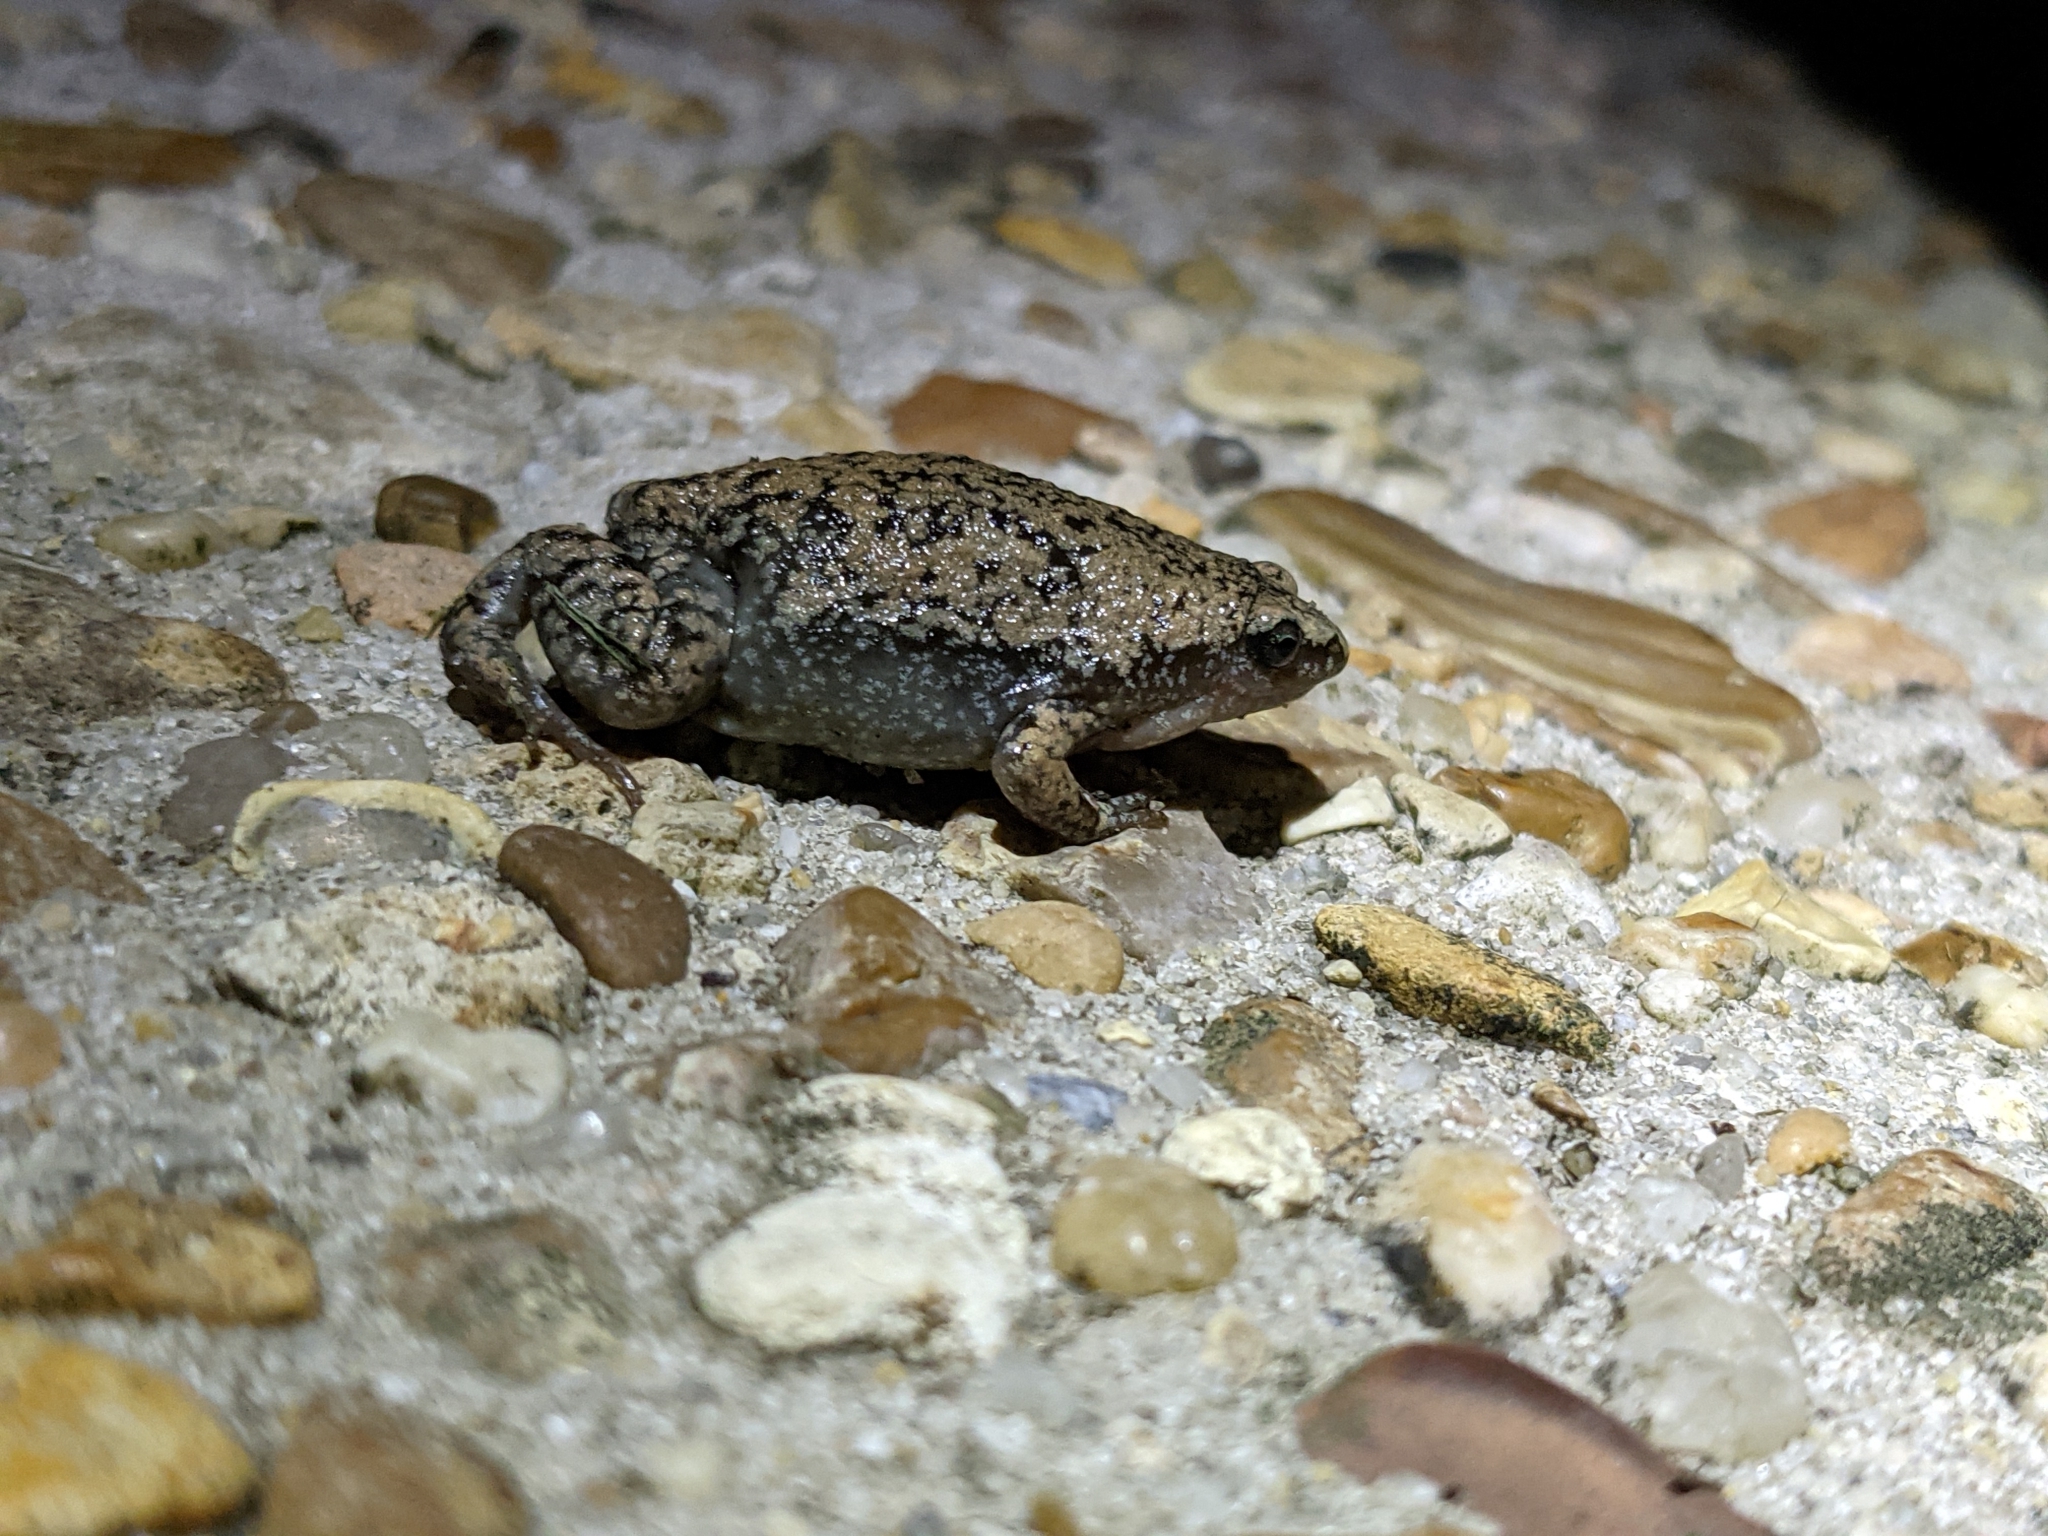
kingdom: Animalia
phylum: Chordata
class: Amphibia
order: Anura
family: Microhylidae
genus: Gastrophryne
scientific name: Gastrophryne carolinensis
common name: Eastern narrowmouth toad
